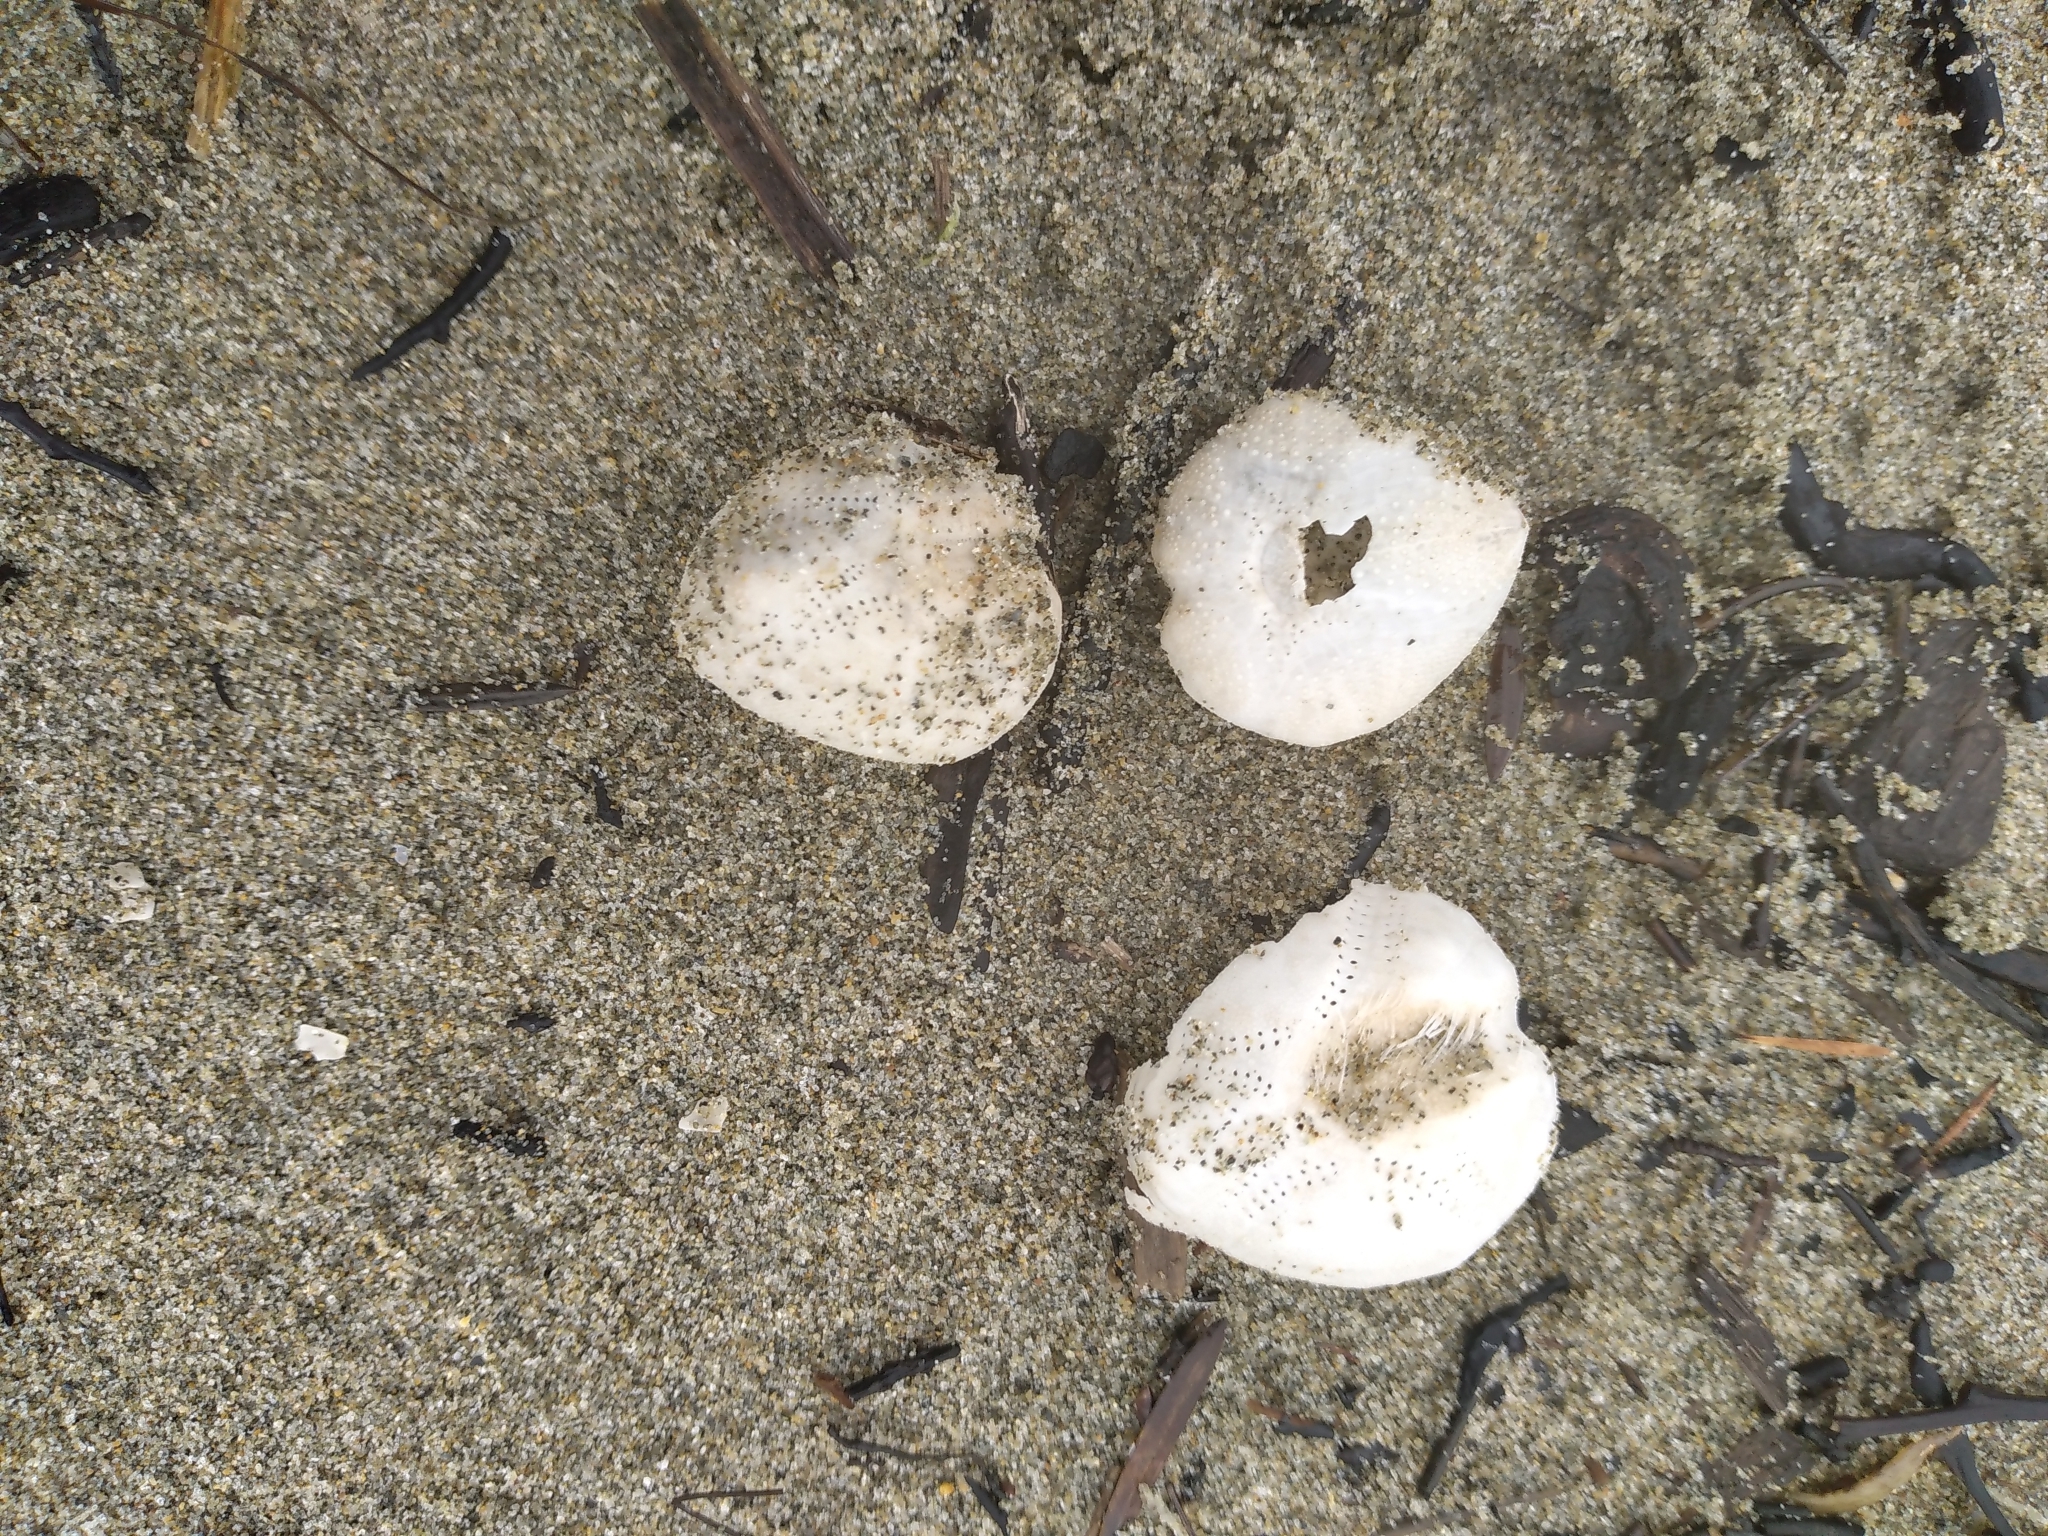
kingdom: Animalia
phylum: Echinodermata
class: Echinoidea
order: Spatangoida
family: Loveniidae
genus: Echinocardium
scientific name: Echinocardium cordatum
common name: Heart-urchin
